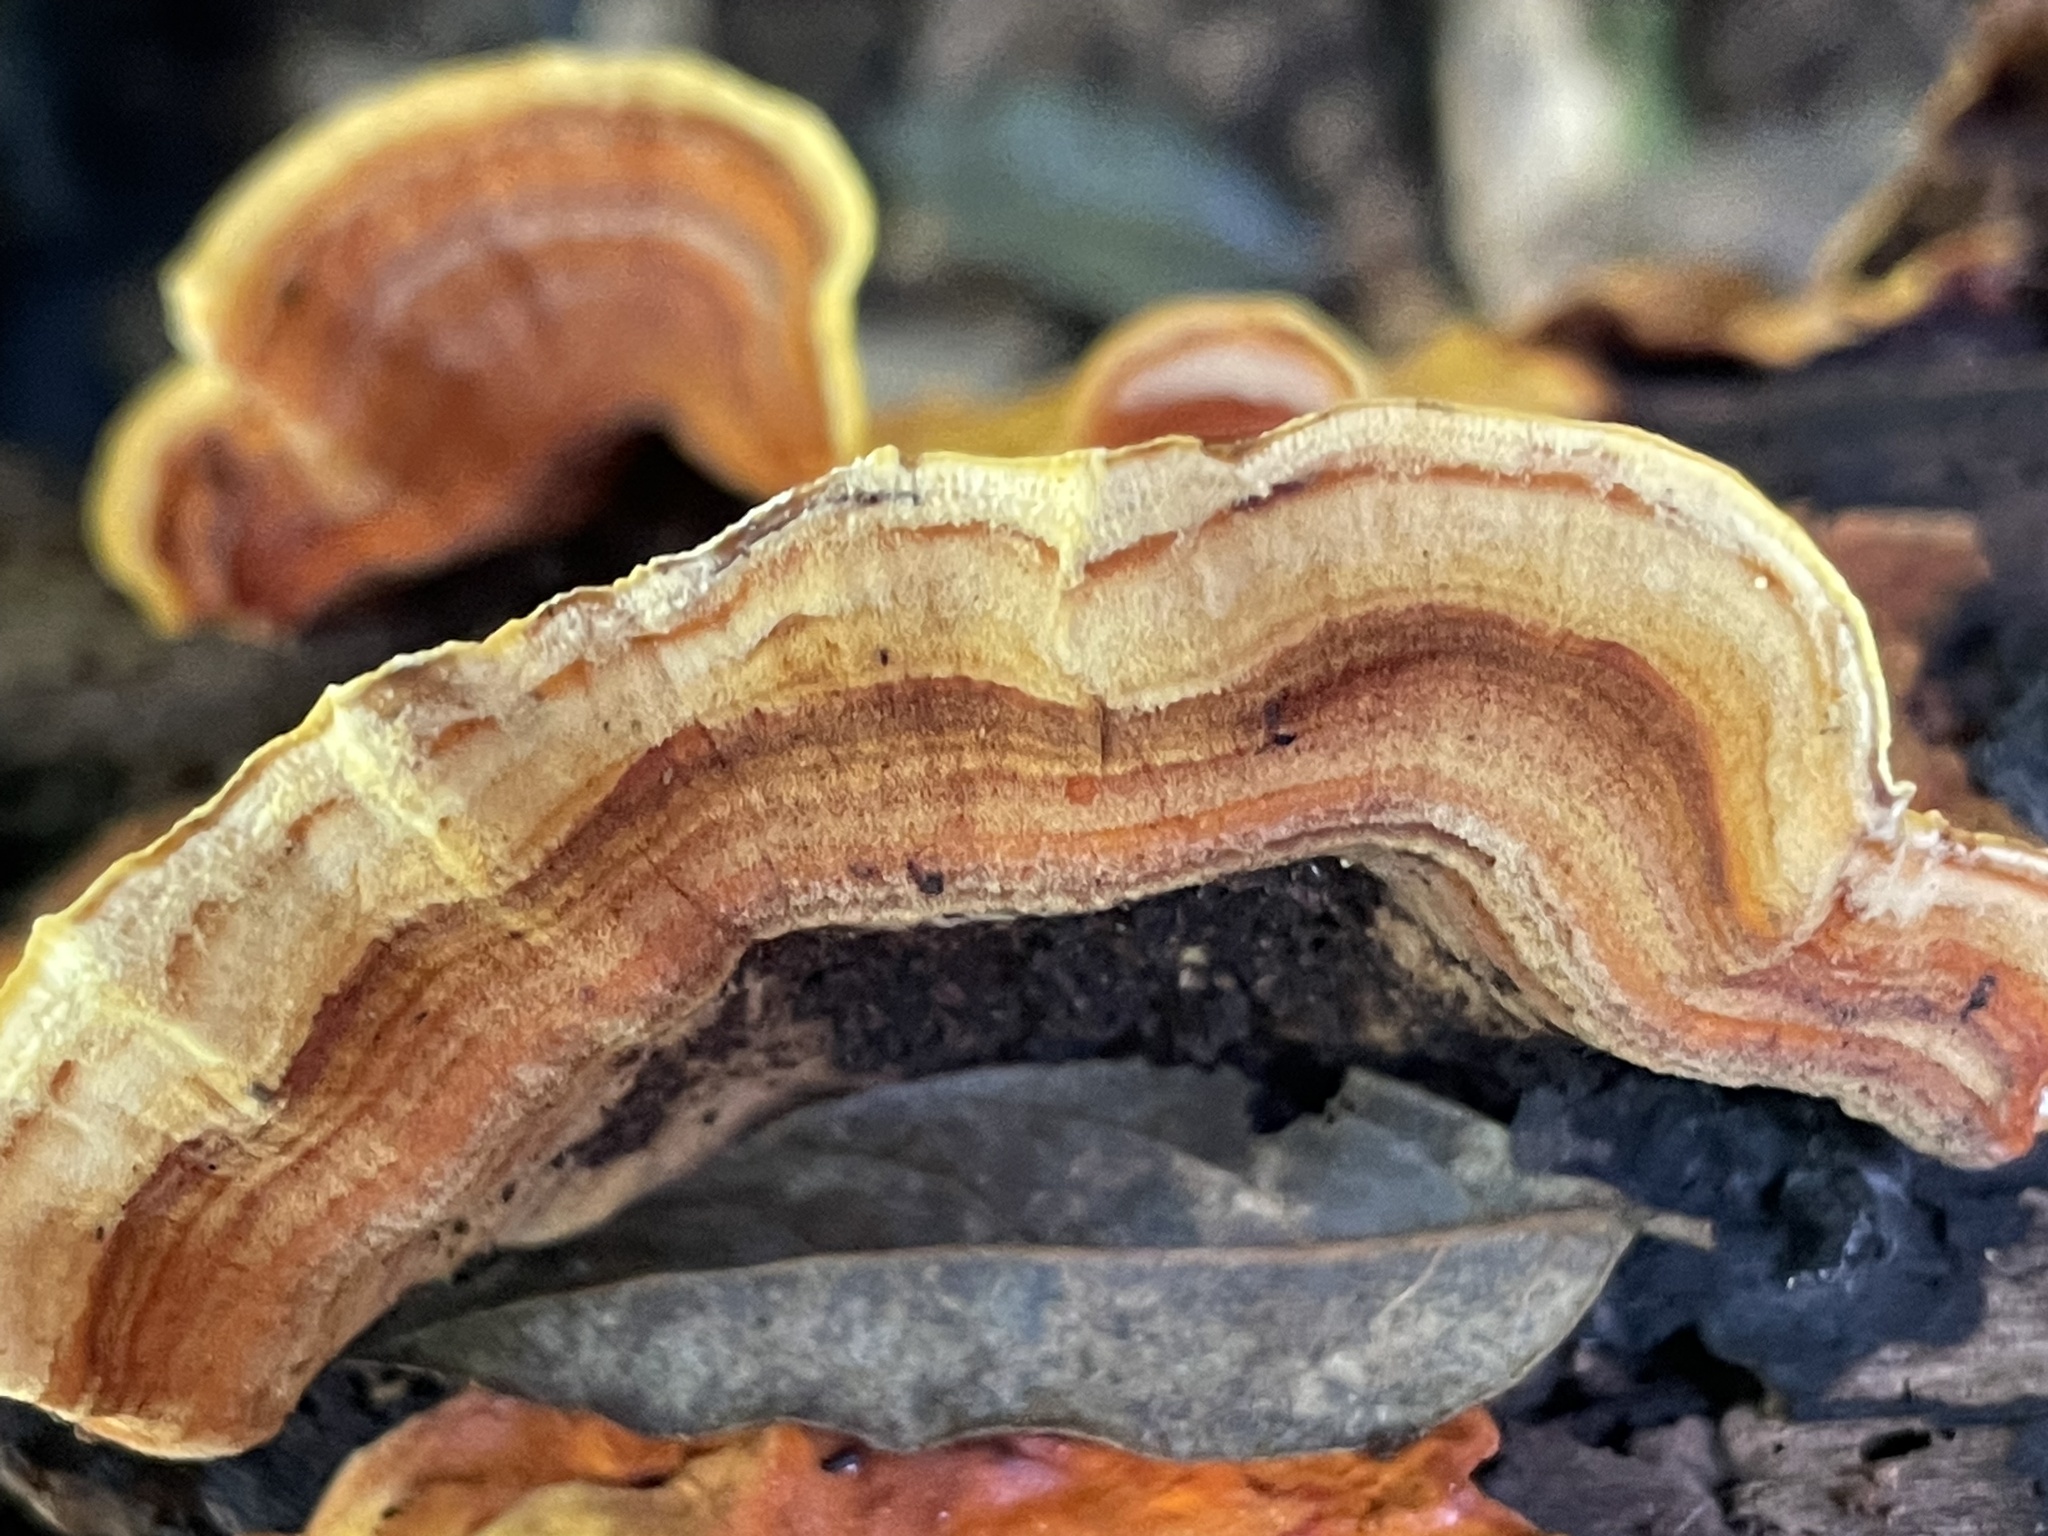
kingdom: Fungi
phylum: Basidiomycota
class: Agaricomycetes
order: Russulales
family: Stereaceae
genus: Stereum
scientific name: Stereum ostrea
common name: False turkeytail
